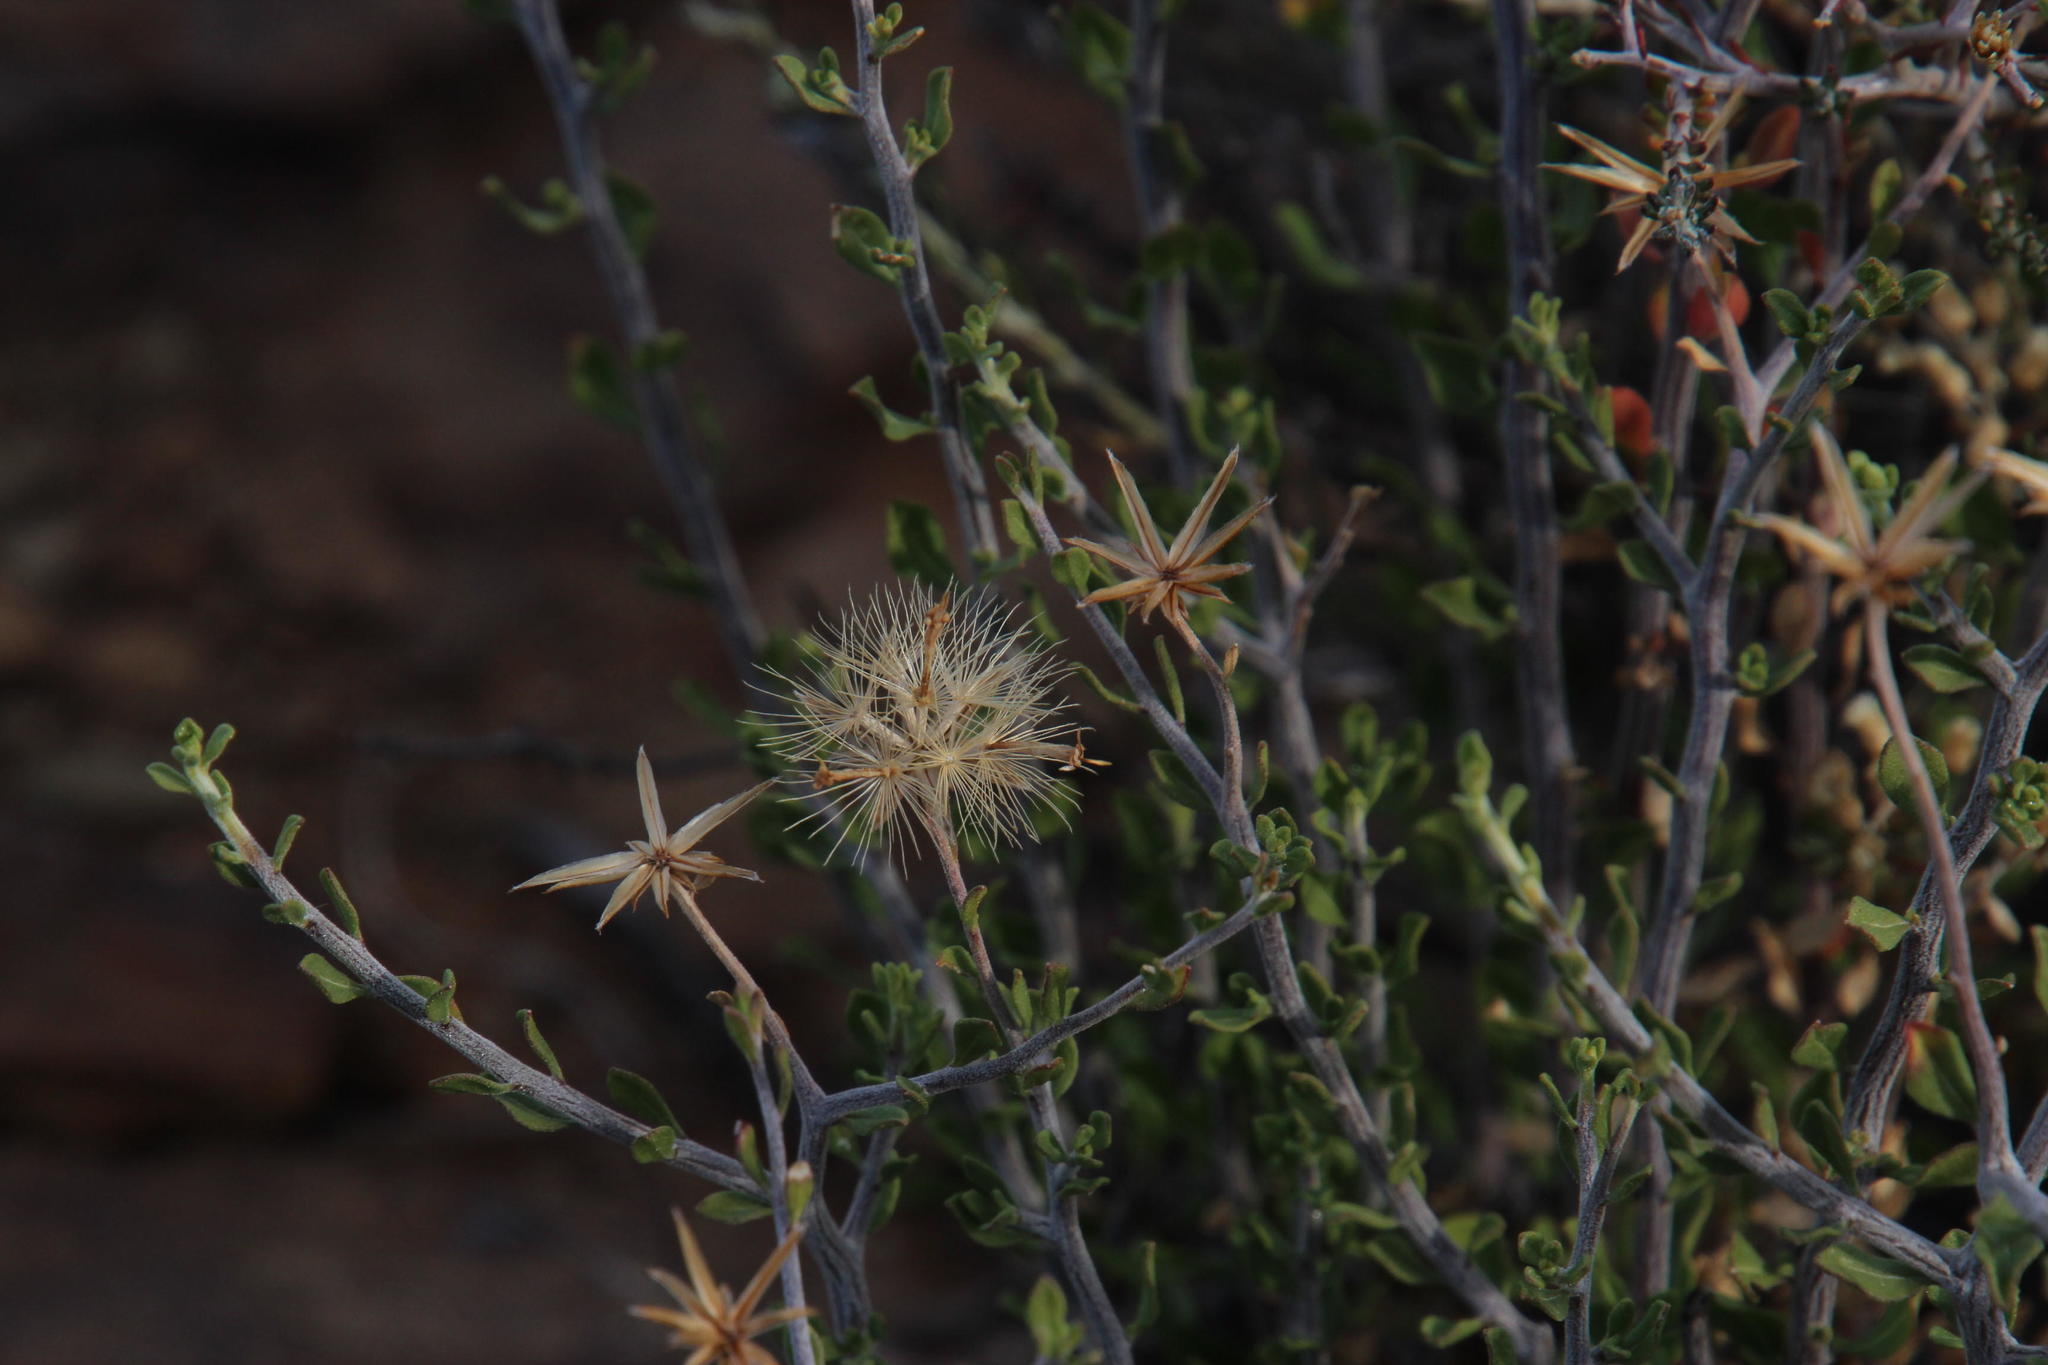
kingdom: Plantae
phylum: Tracheophyta
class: Magnoliopsida
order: Asterales
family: Asteraceae
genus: Pegolettia
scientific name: Pegolettia retrofracta
